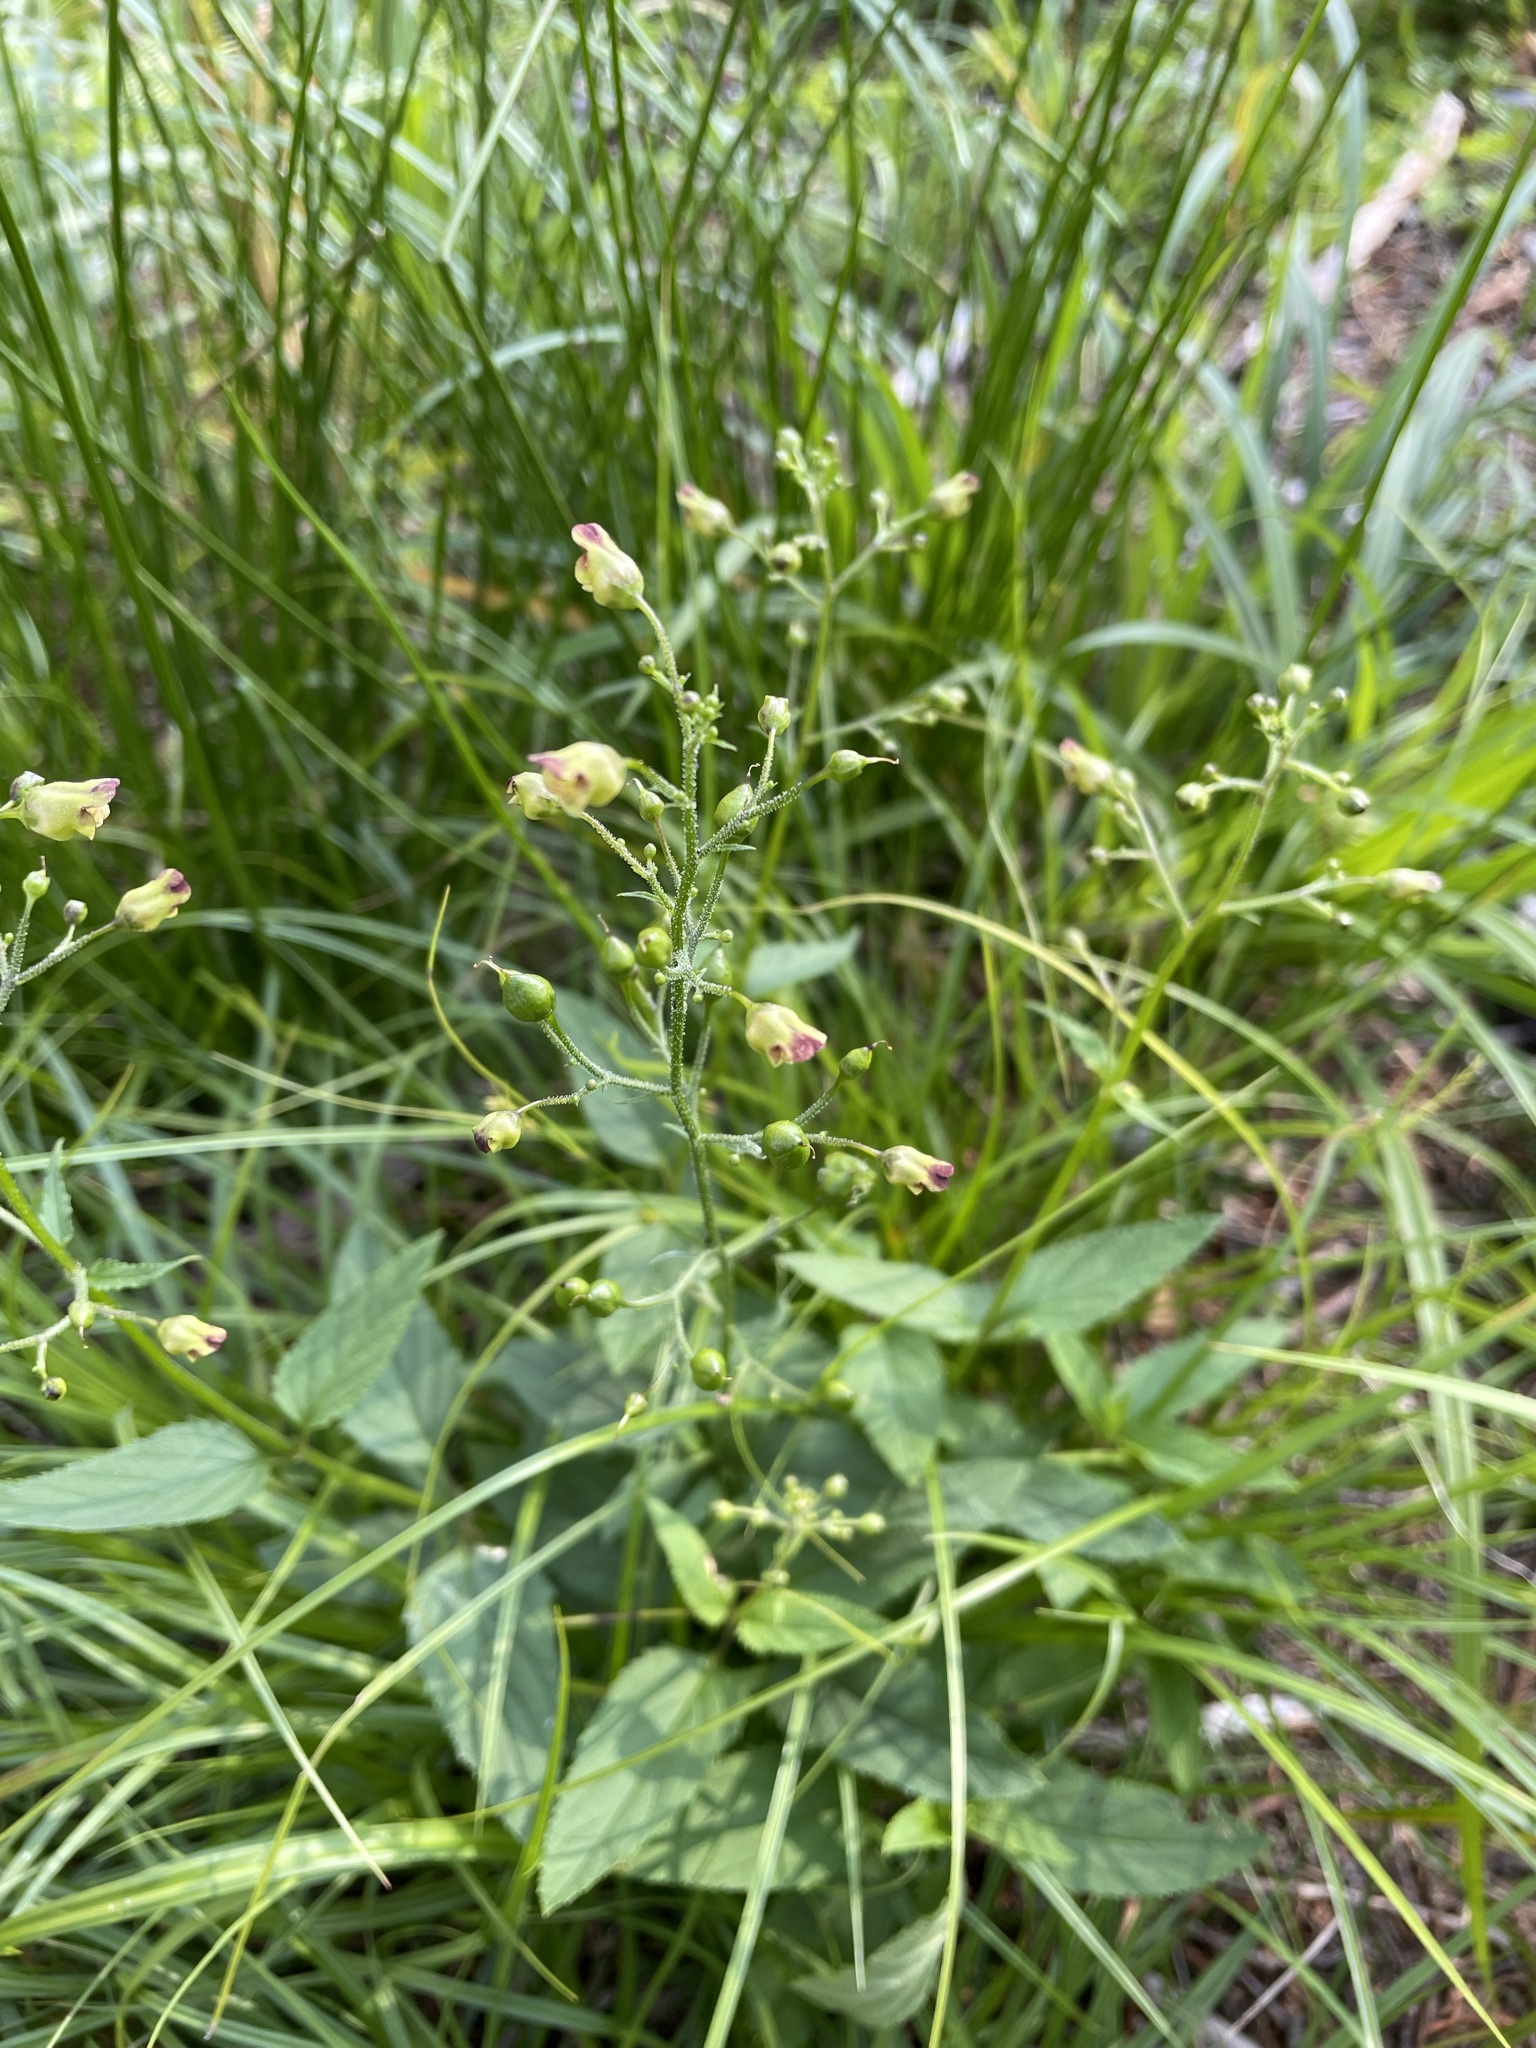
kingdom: Plantae
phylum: Tracheophyta
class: Magnoliopsida
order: Lamiales
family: Scrophulariaceae
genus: Scrophularia
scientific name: Scrophularia nodosa
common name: Common figwort
